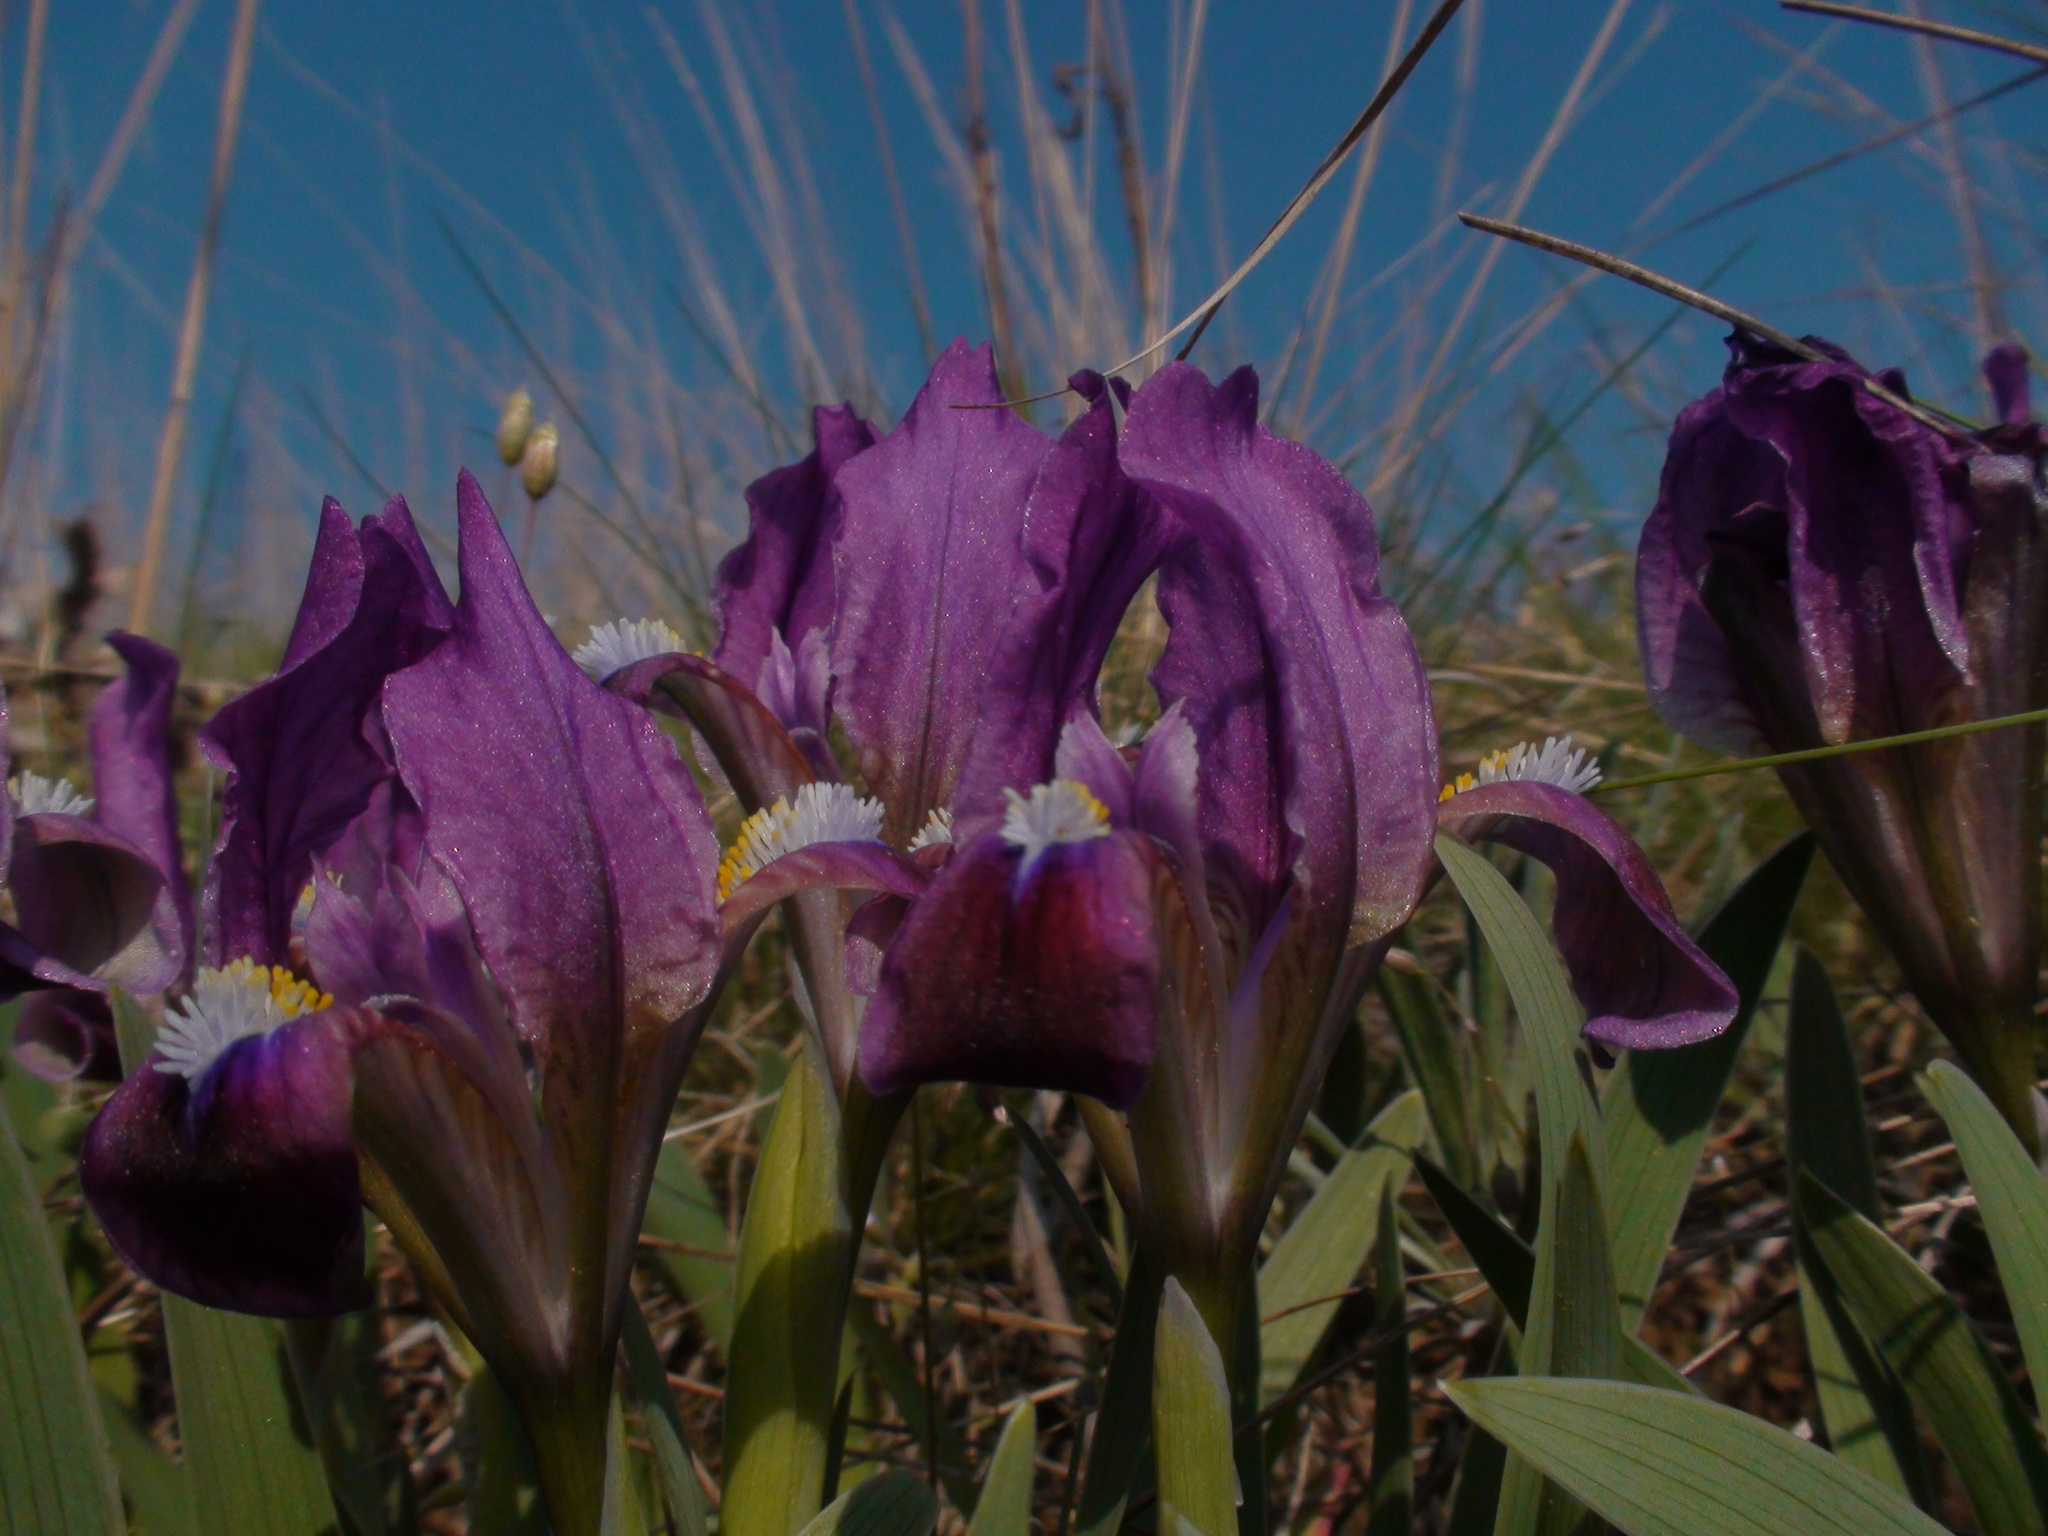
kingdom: Plantae
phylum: Tracheophyta
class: Liliopsida
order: Asparagales
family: Iridaceae
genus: Iris
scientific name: Iris pumila
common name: Dwarf iris
